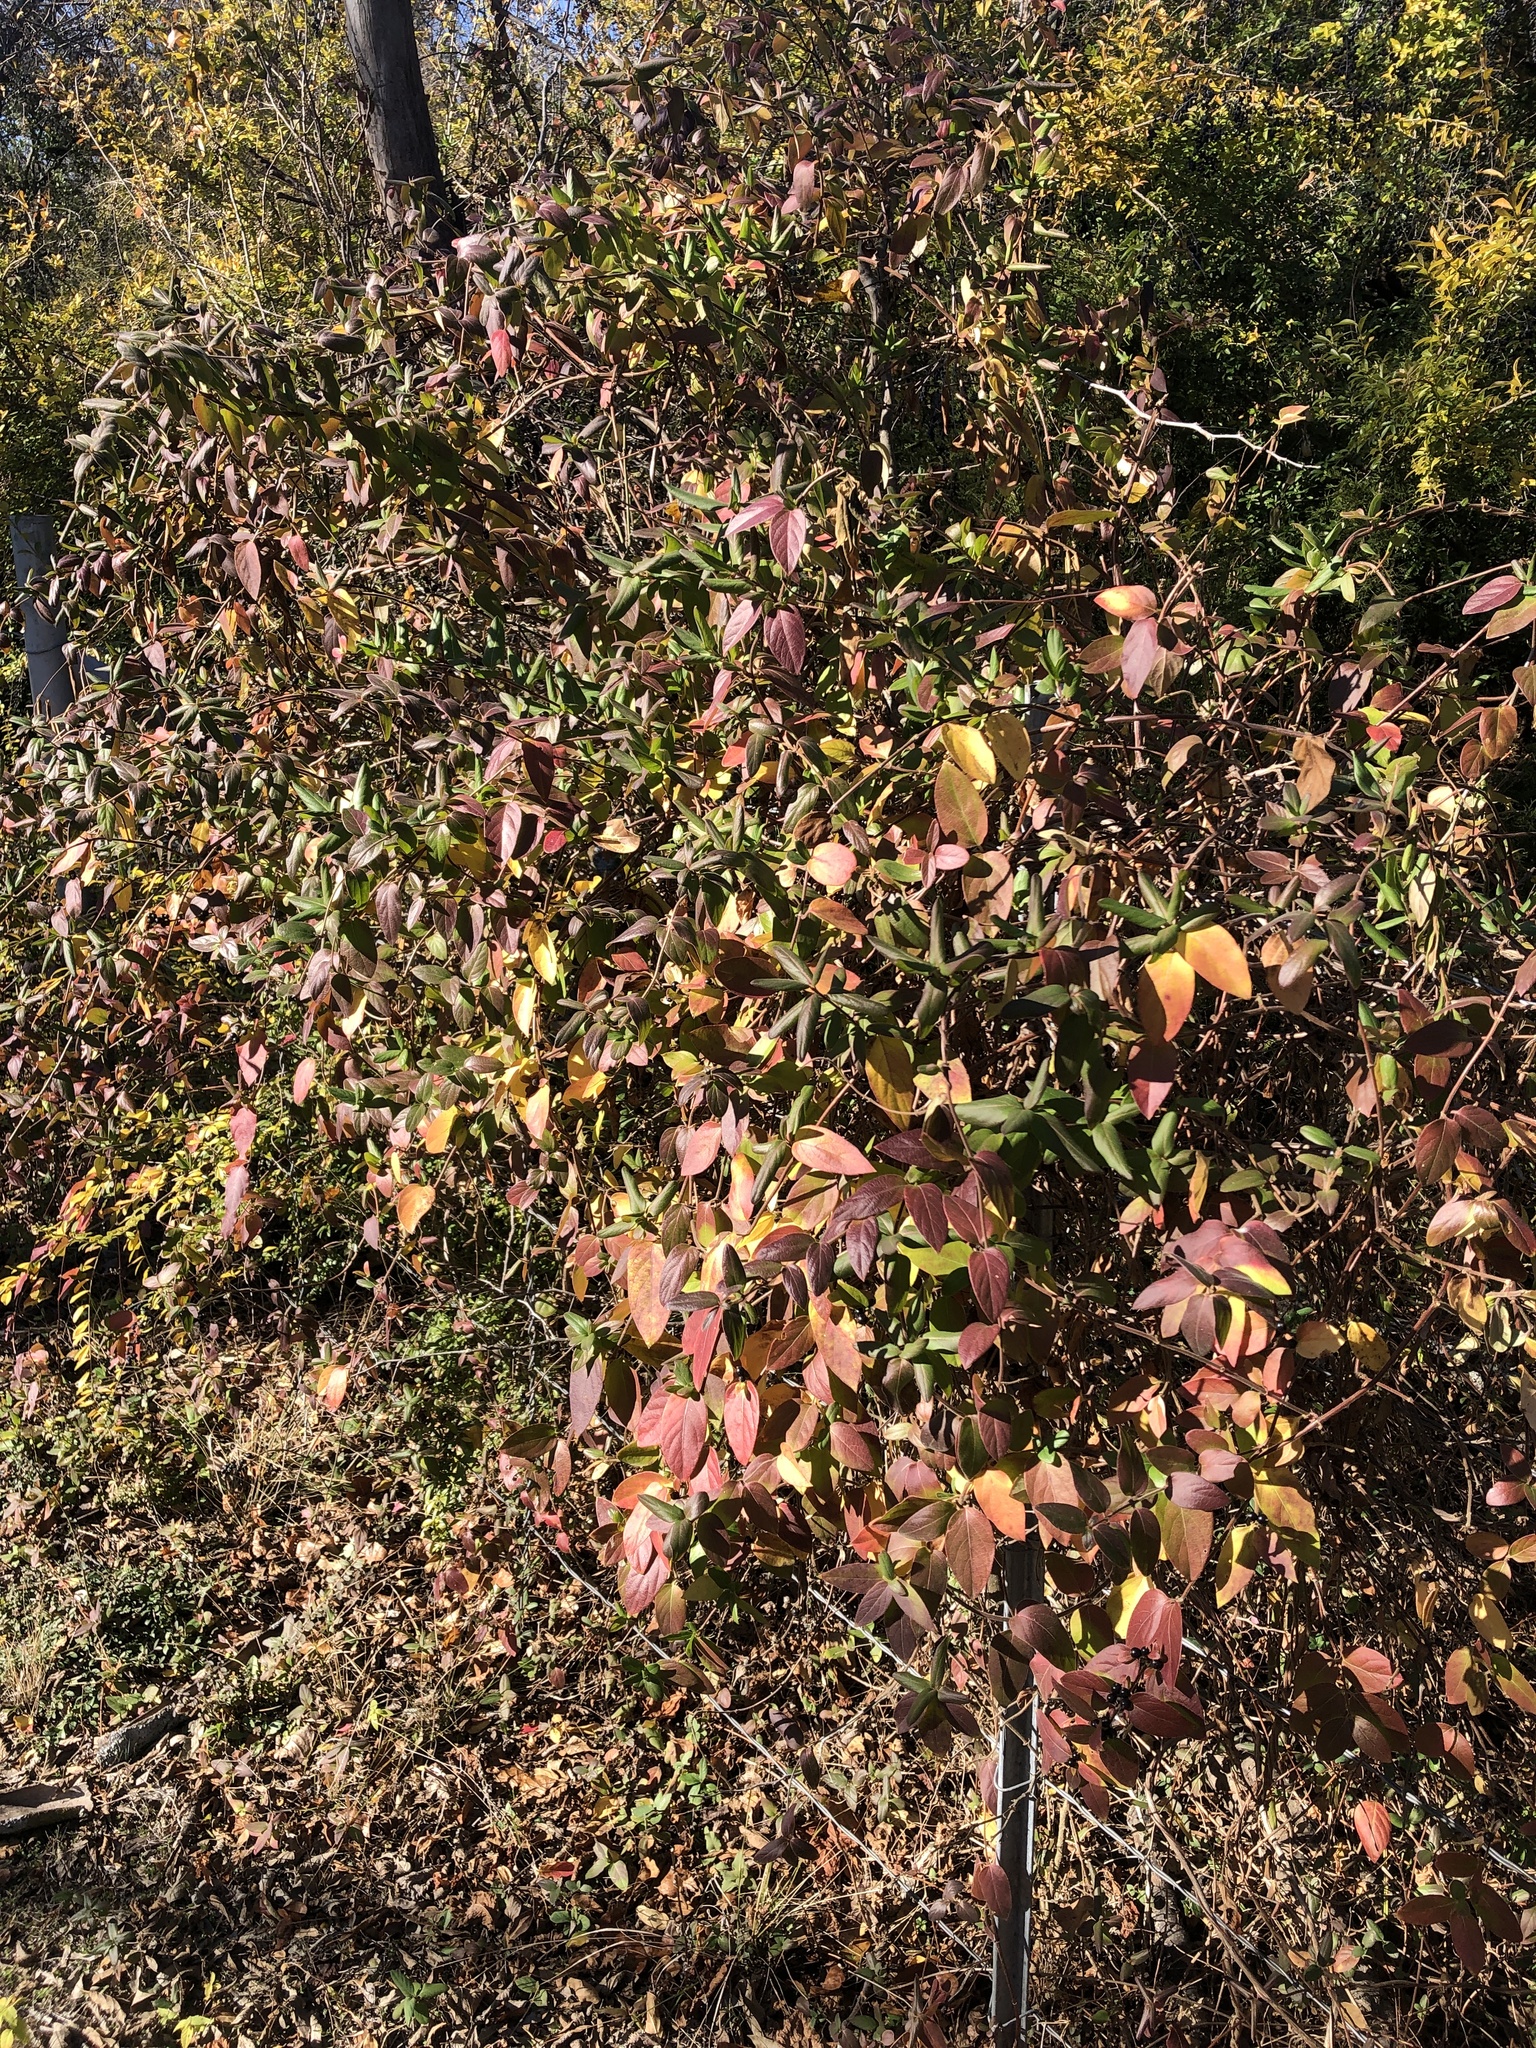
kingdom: Plantae
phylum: Tracheophyta
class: Magnoliopsida
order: Dipsacales
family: Caprifoliaceae
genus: Lonicera
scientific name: Lonicera japonica
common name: Japanese honeysuckle
